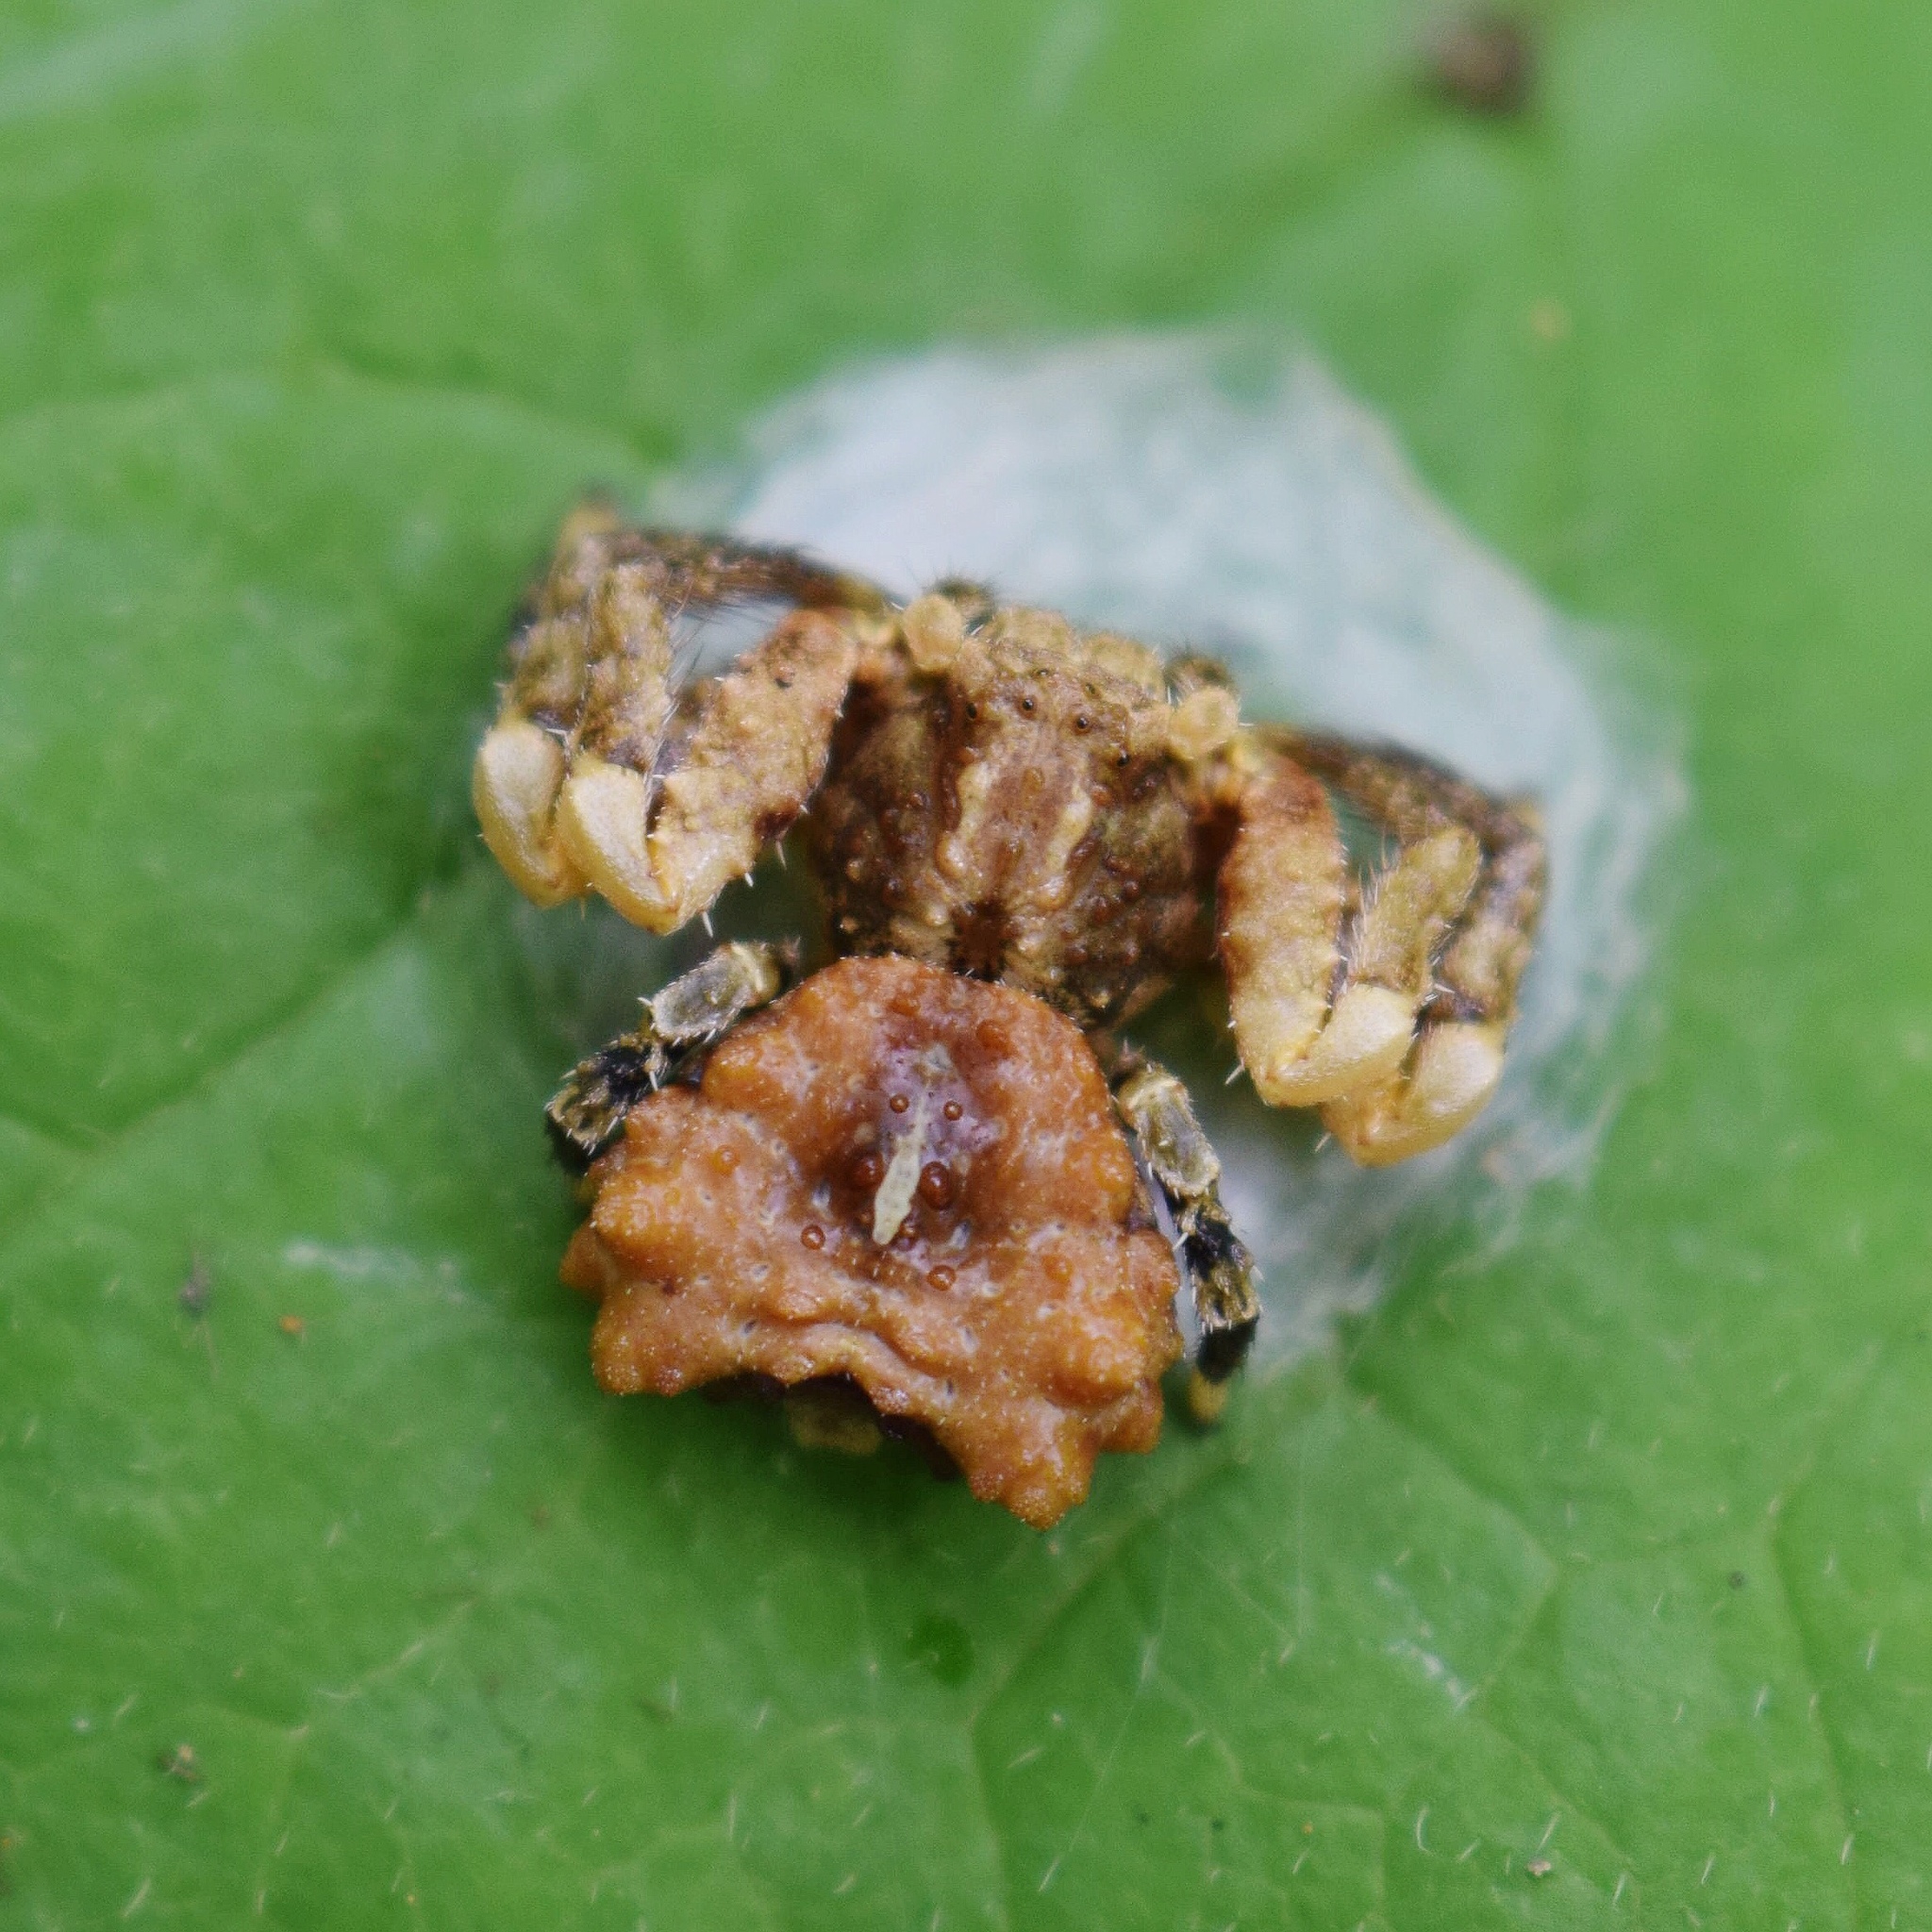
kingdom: Animalia
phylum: Arthropoda
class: Arachnida
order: Araneae
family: Thomisidae
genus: Phrynarachne
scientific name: Phrynarachne rugosa
